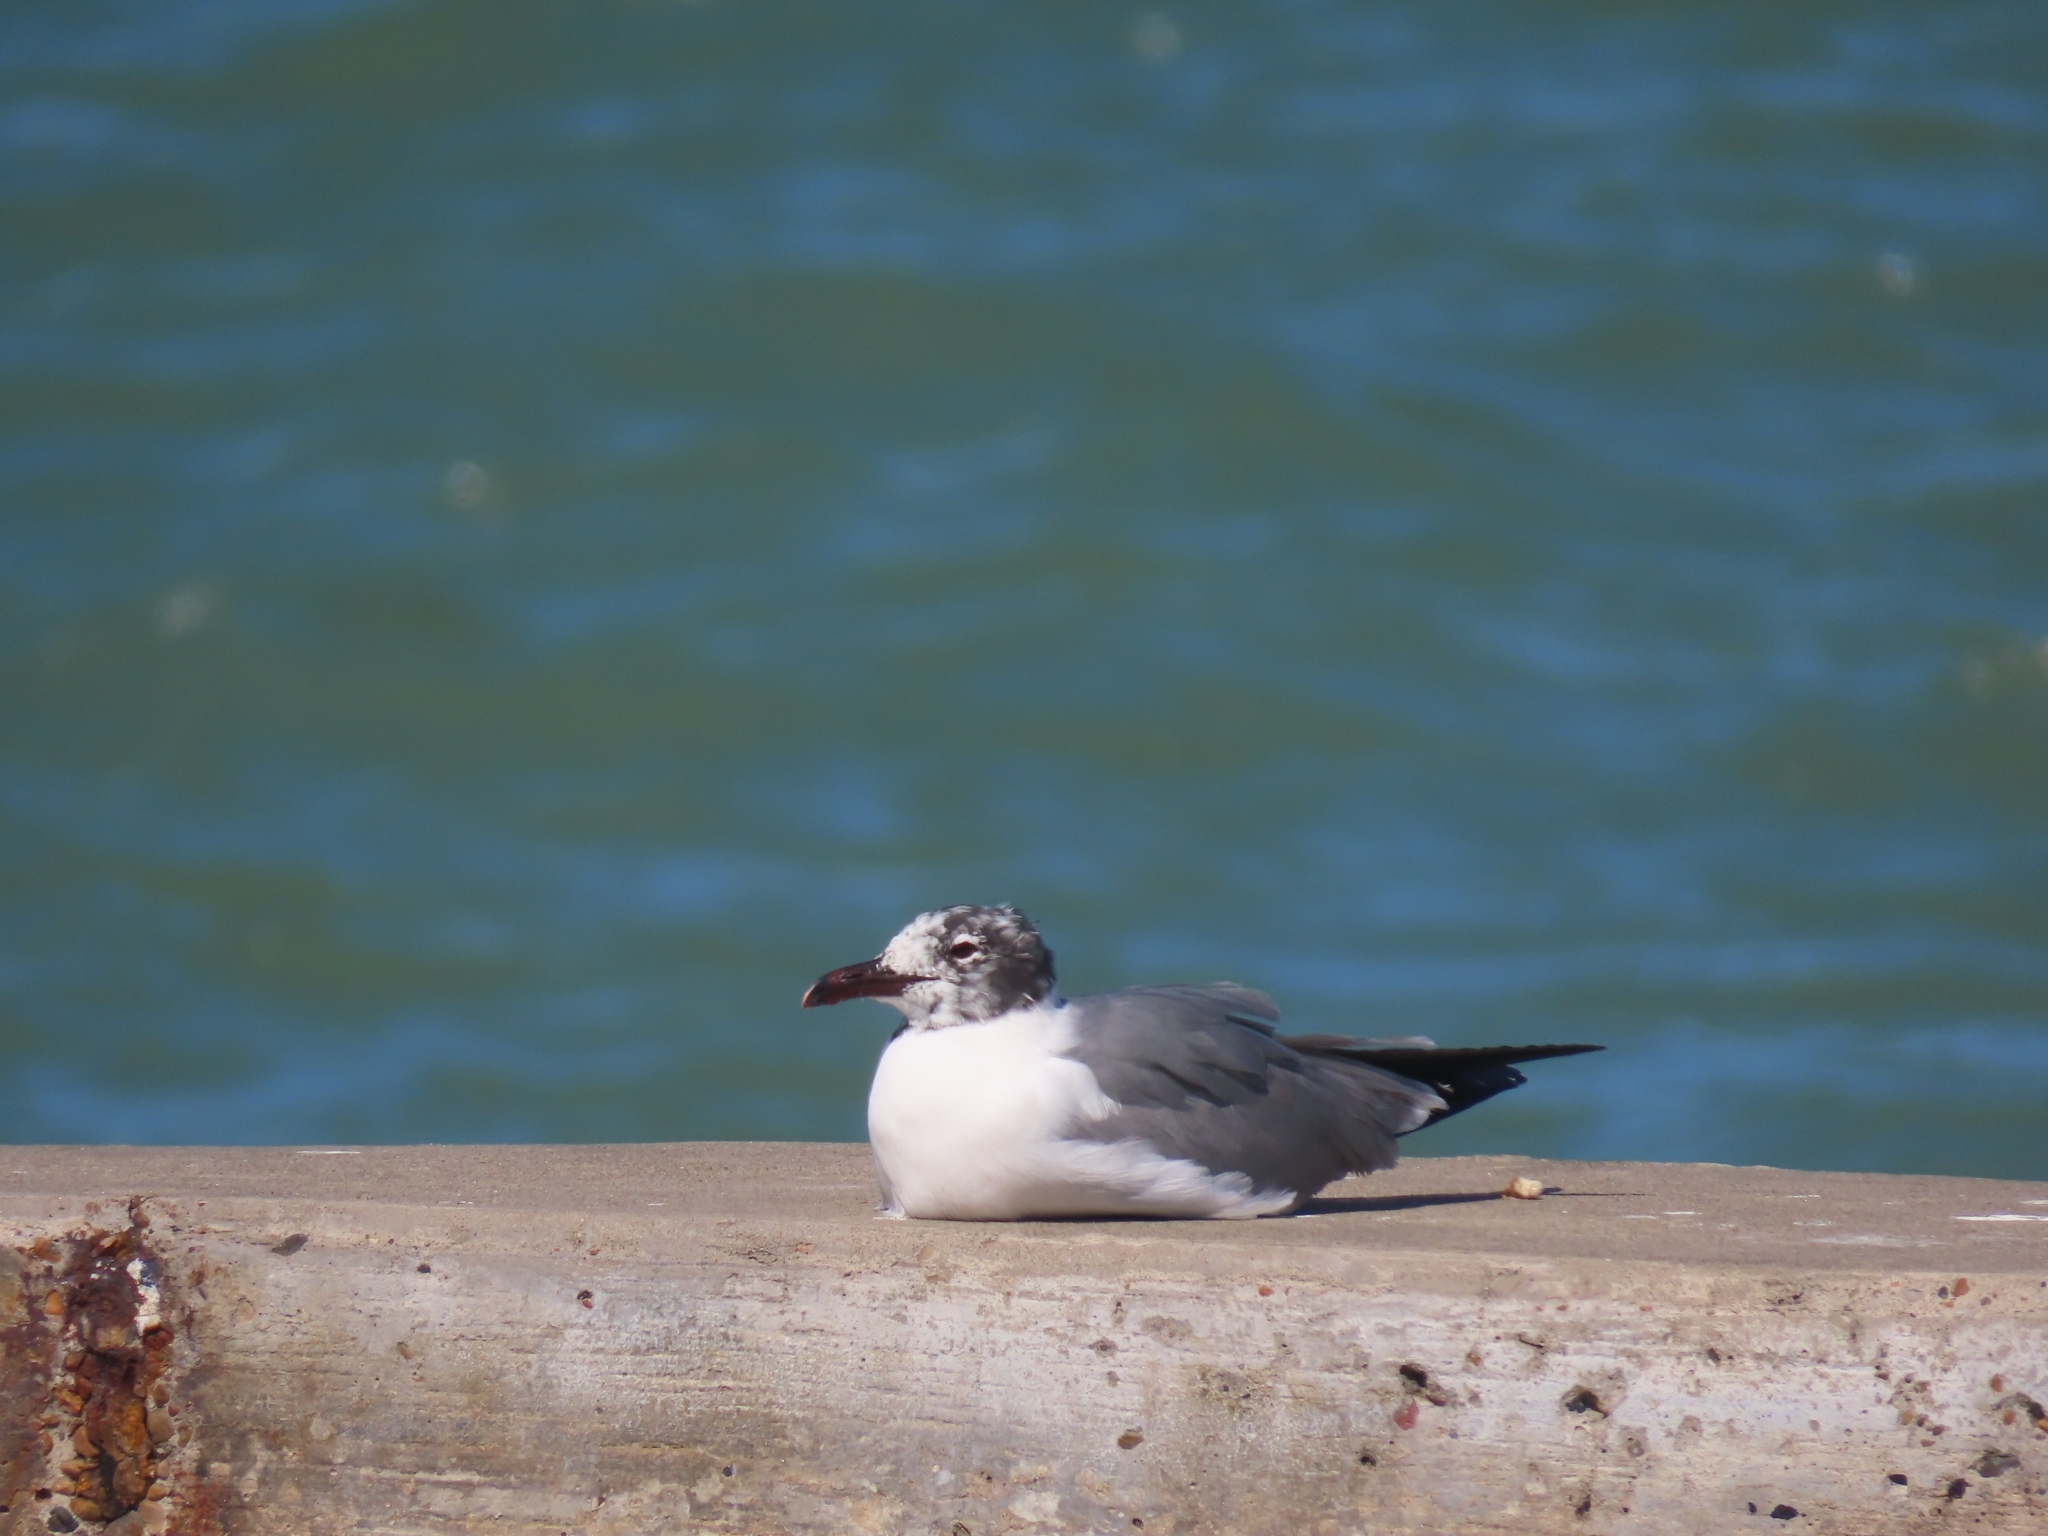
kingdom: Animalia
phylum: Chordata
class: Aves
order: Charadriiformes
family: Laridae
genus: Leucophaeus
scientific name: Leucophaeus atricilla
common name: Laughing gull
